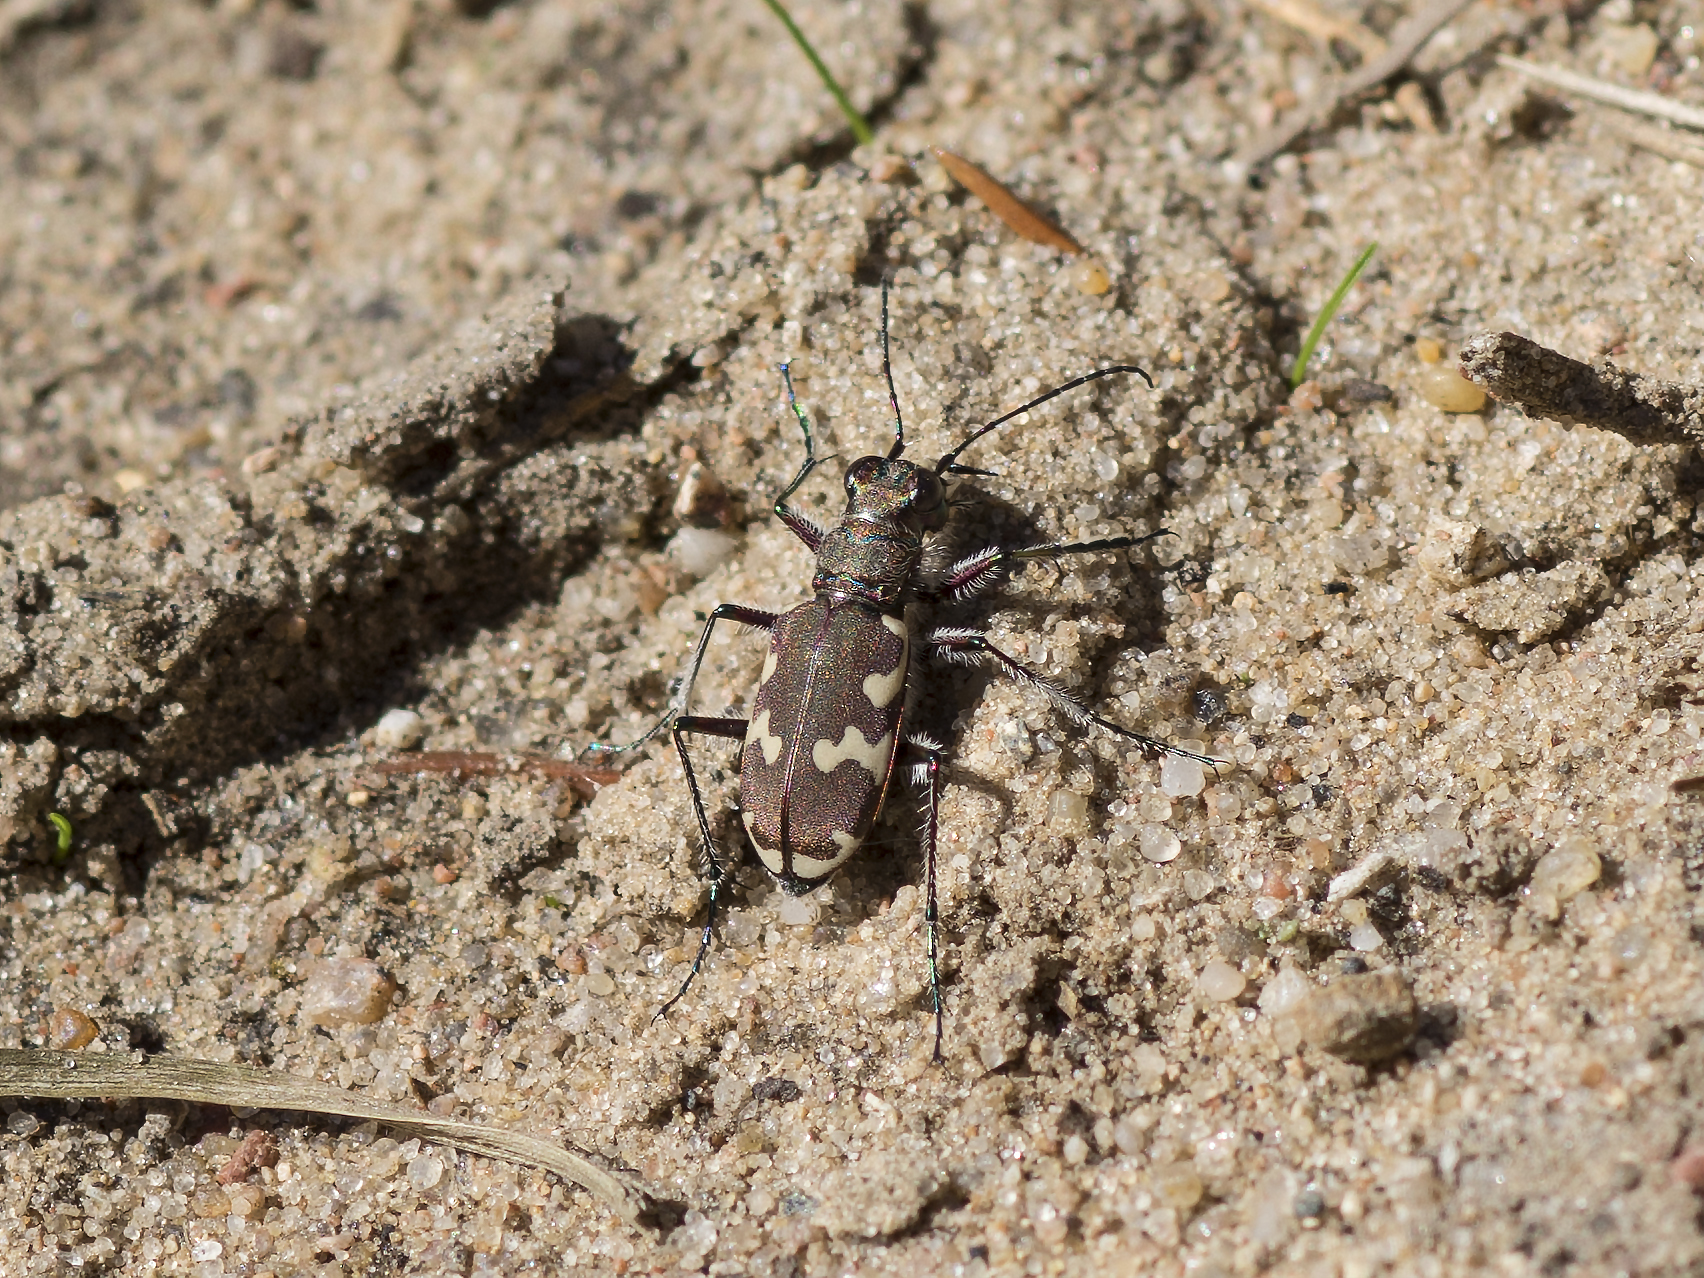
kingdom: Animalia
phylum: Arthropoda
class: Insecta
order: Coleoptera
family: Carabidae
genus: Cicindela
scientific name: Cicindela hybrida
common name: Northern dune tiger beetle
